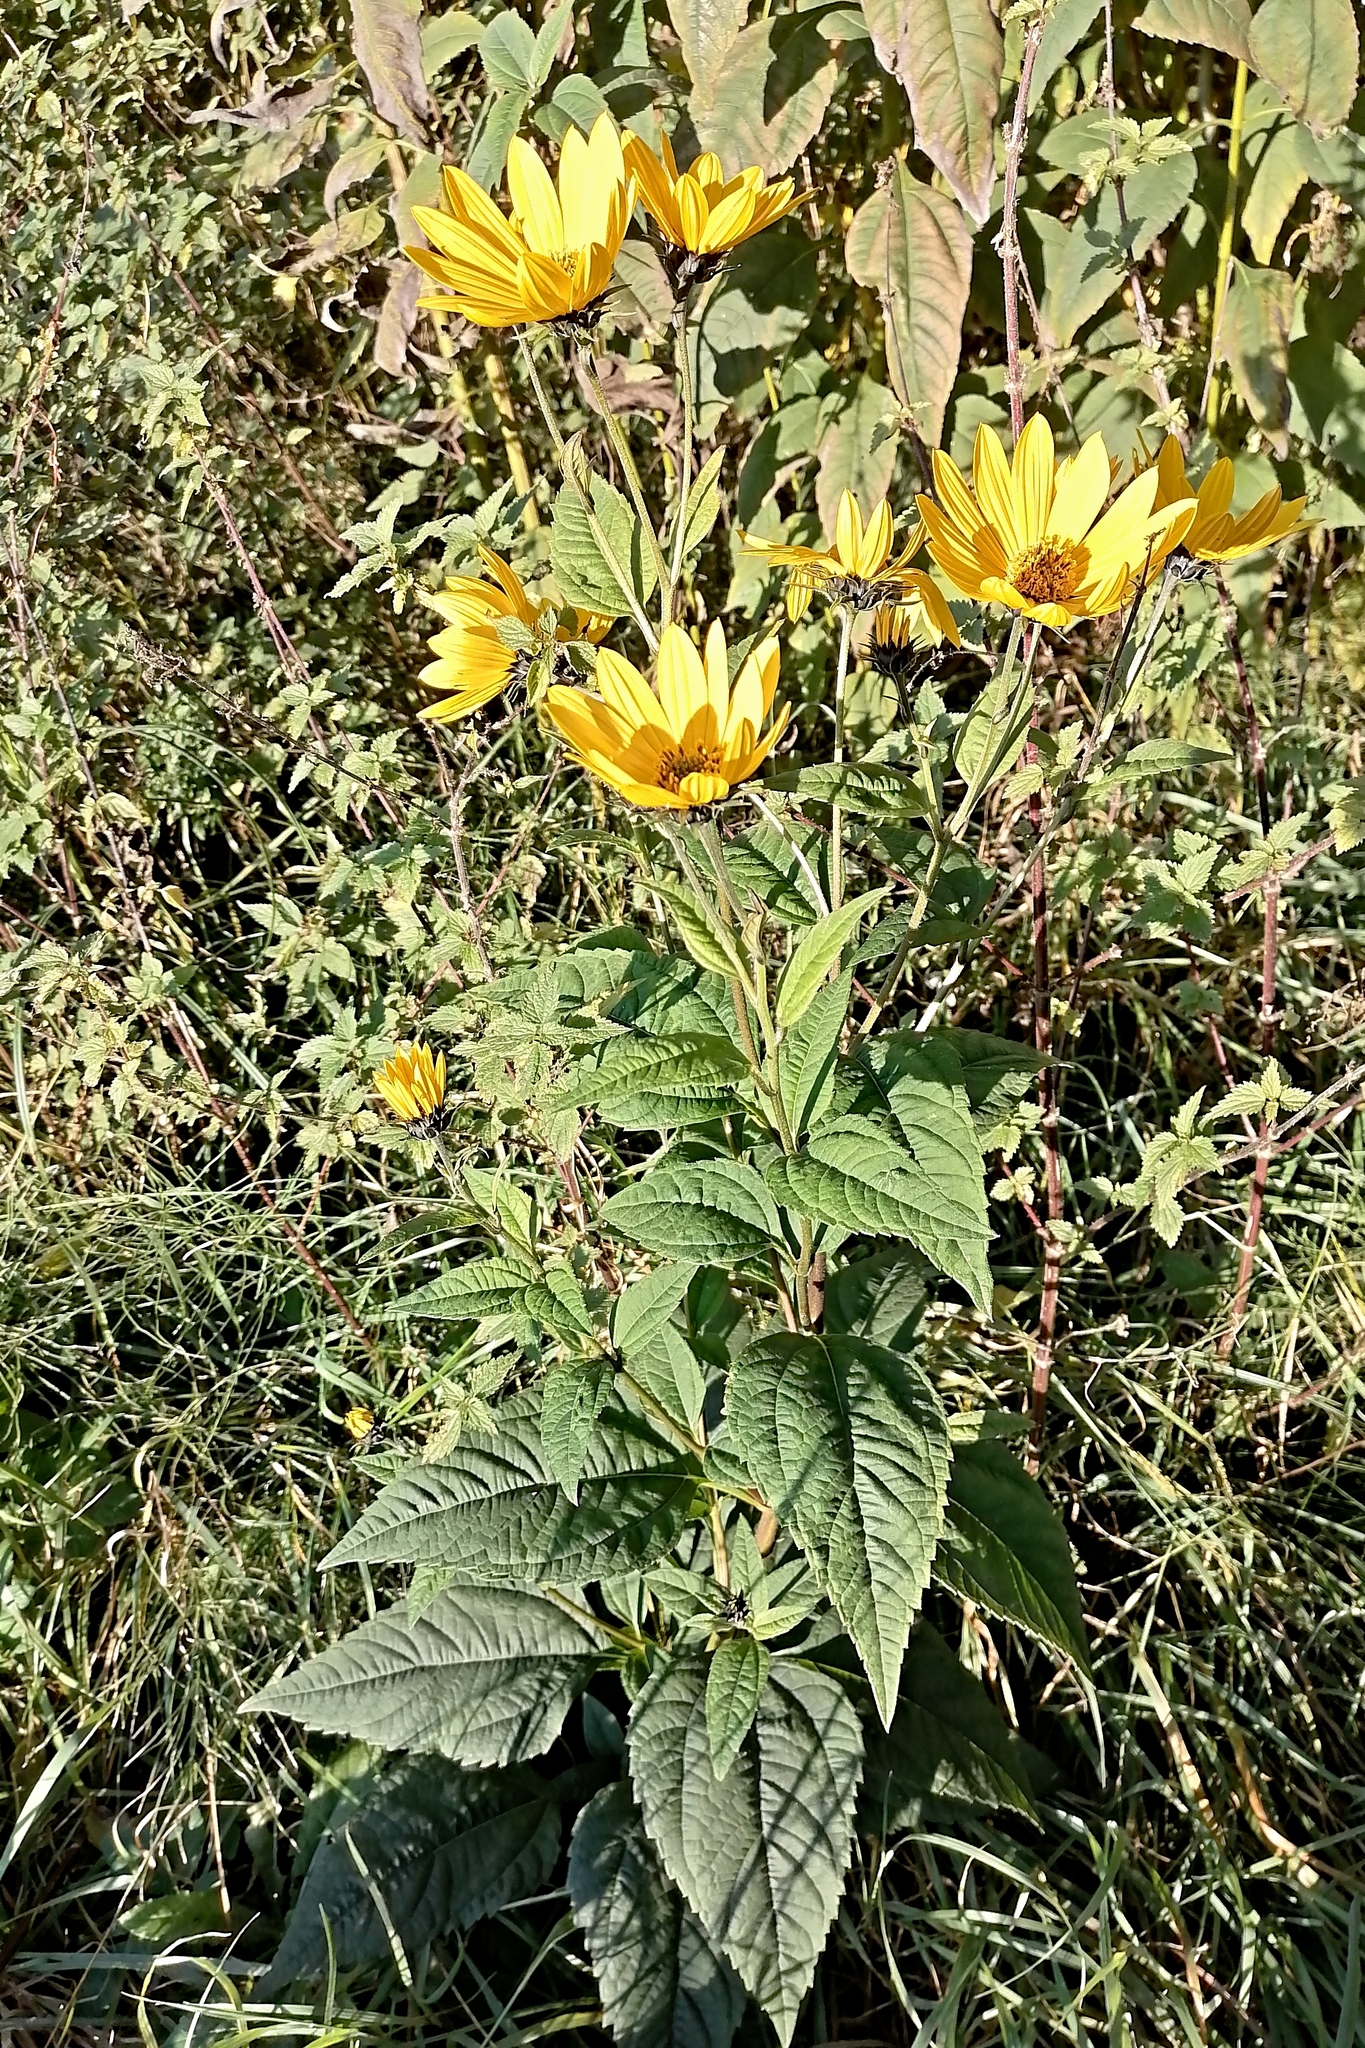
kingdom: Plantae
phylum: Tracheophyta
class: Magnoliopsida
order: Asterales
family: Asteraceae
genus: Helianthus
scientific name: Helianthus tuberosus
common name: Jerusalem artichoke
